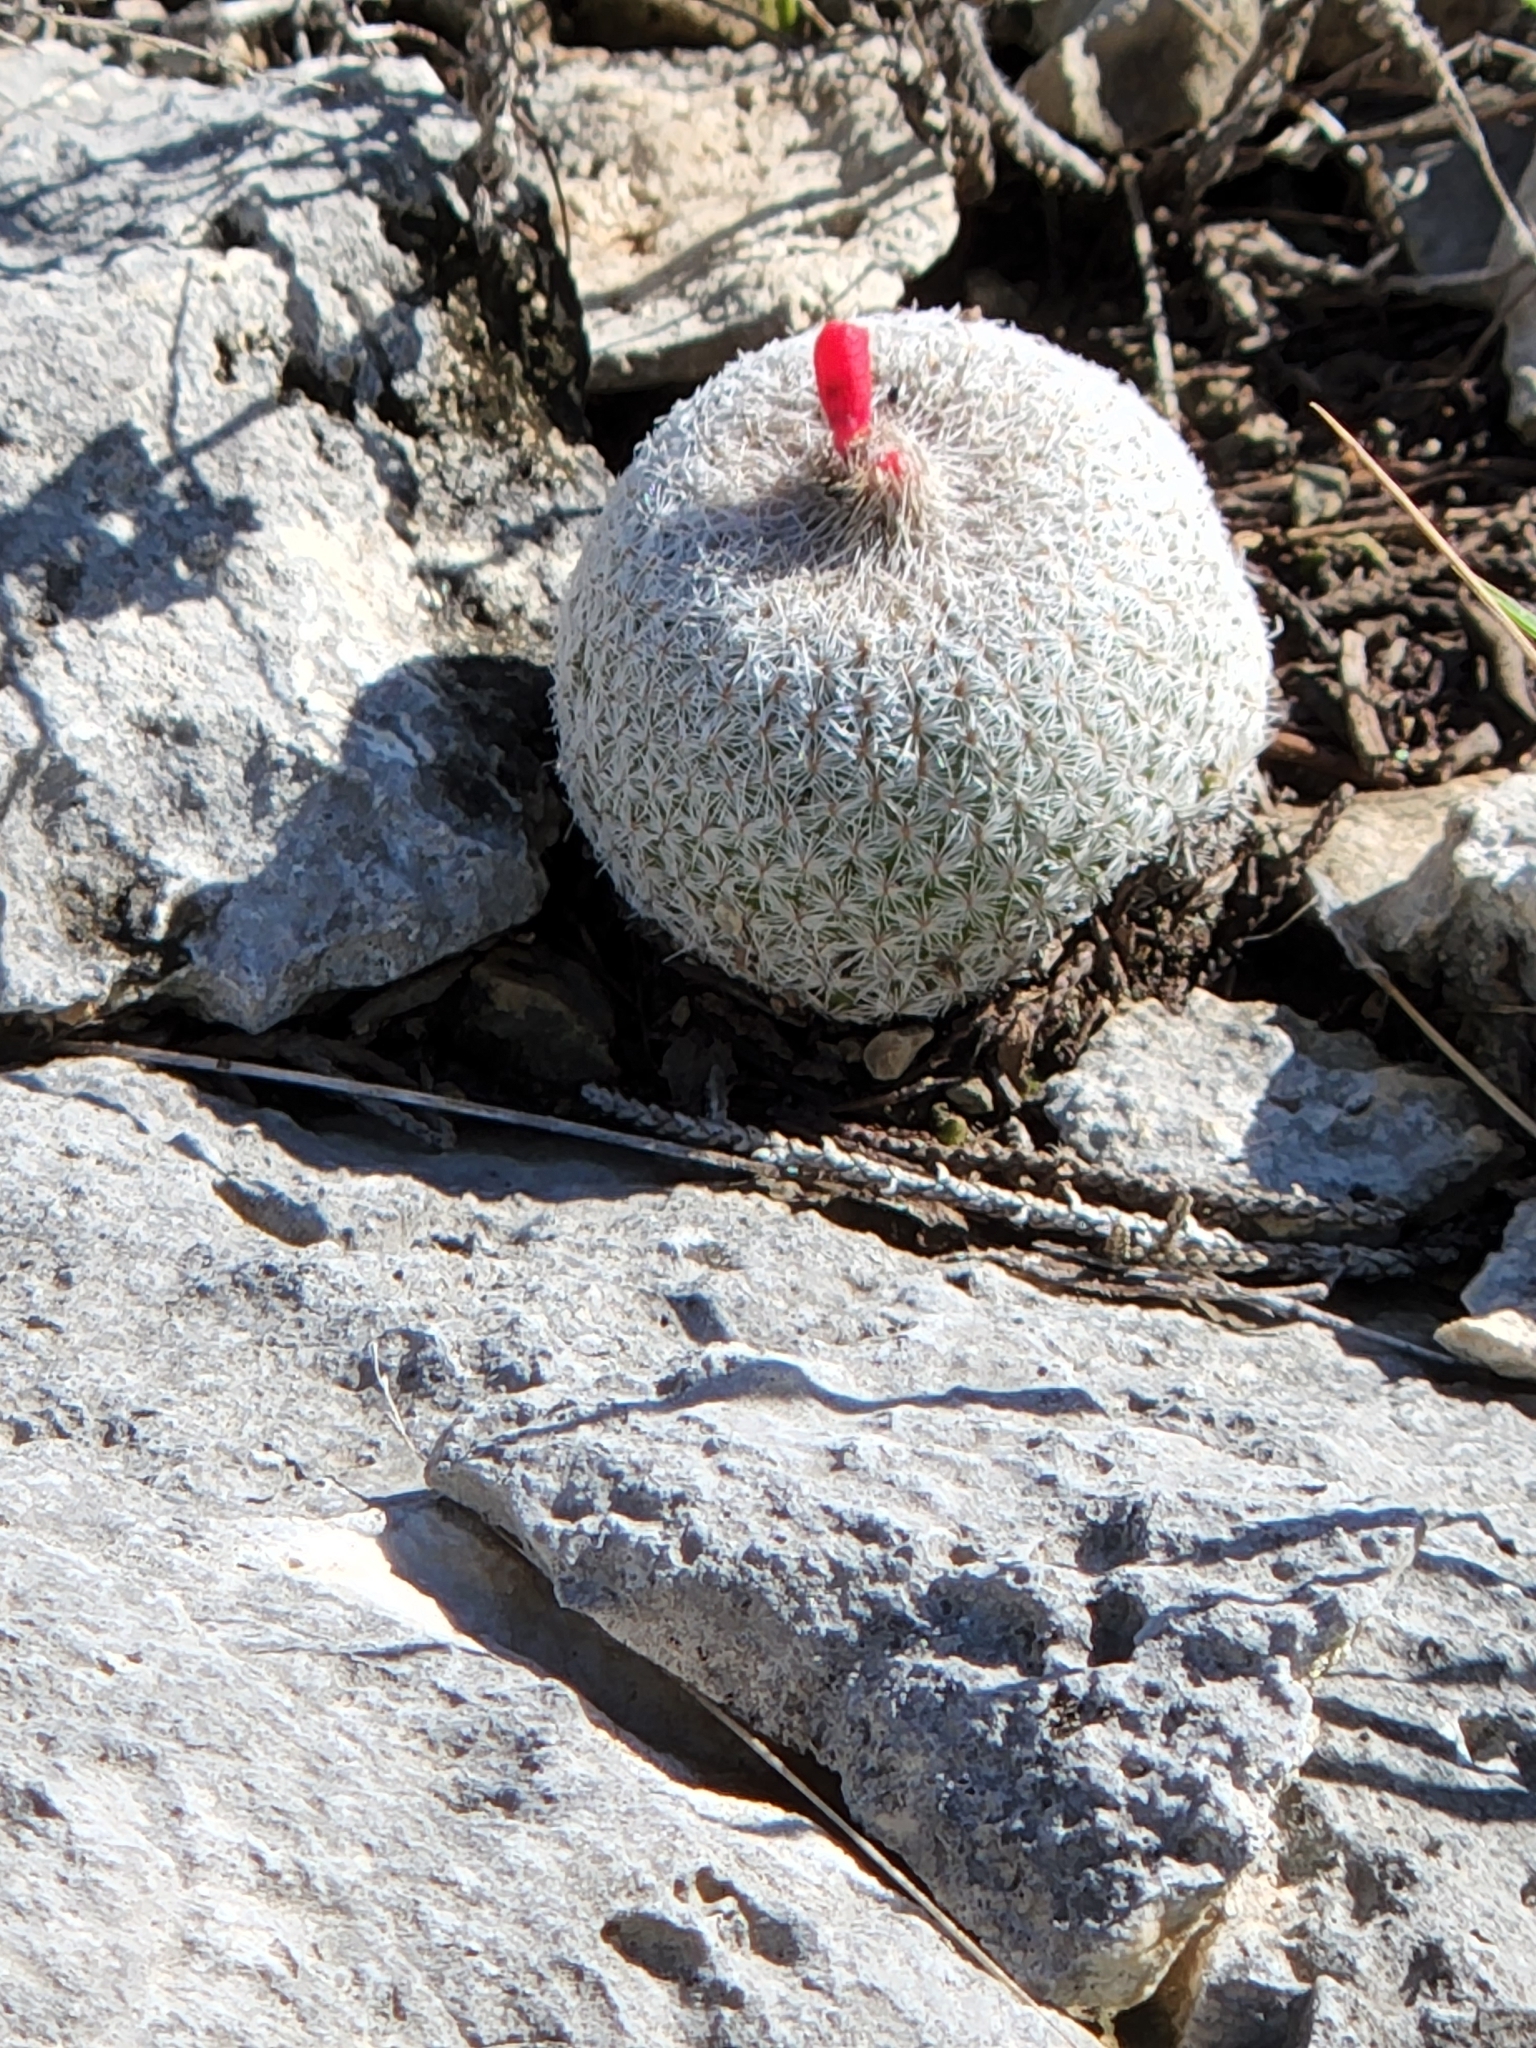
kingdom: Plantae
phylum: Tracheophyta
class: Magnoliopsida
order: Caryophyllales
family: Cactaceae
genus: Epithelantha
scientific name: Epithelantha micromeris
